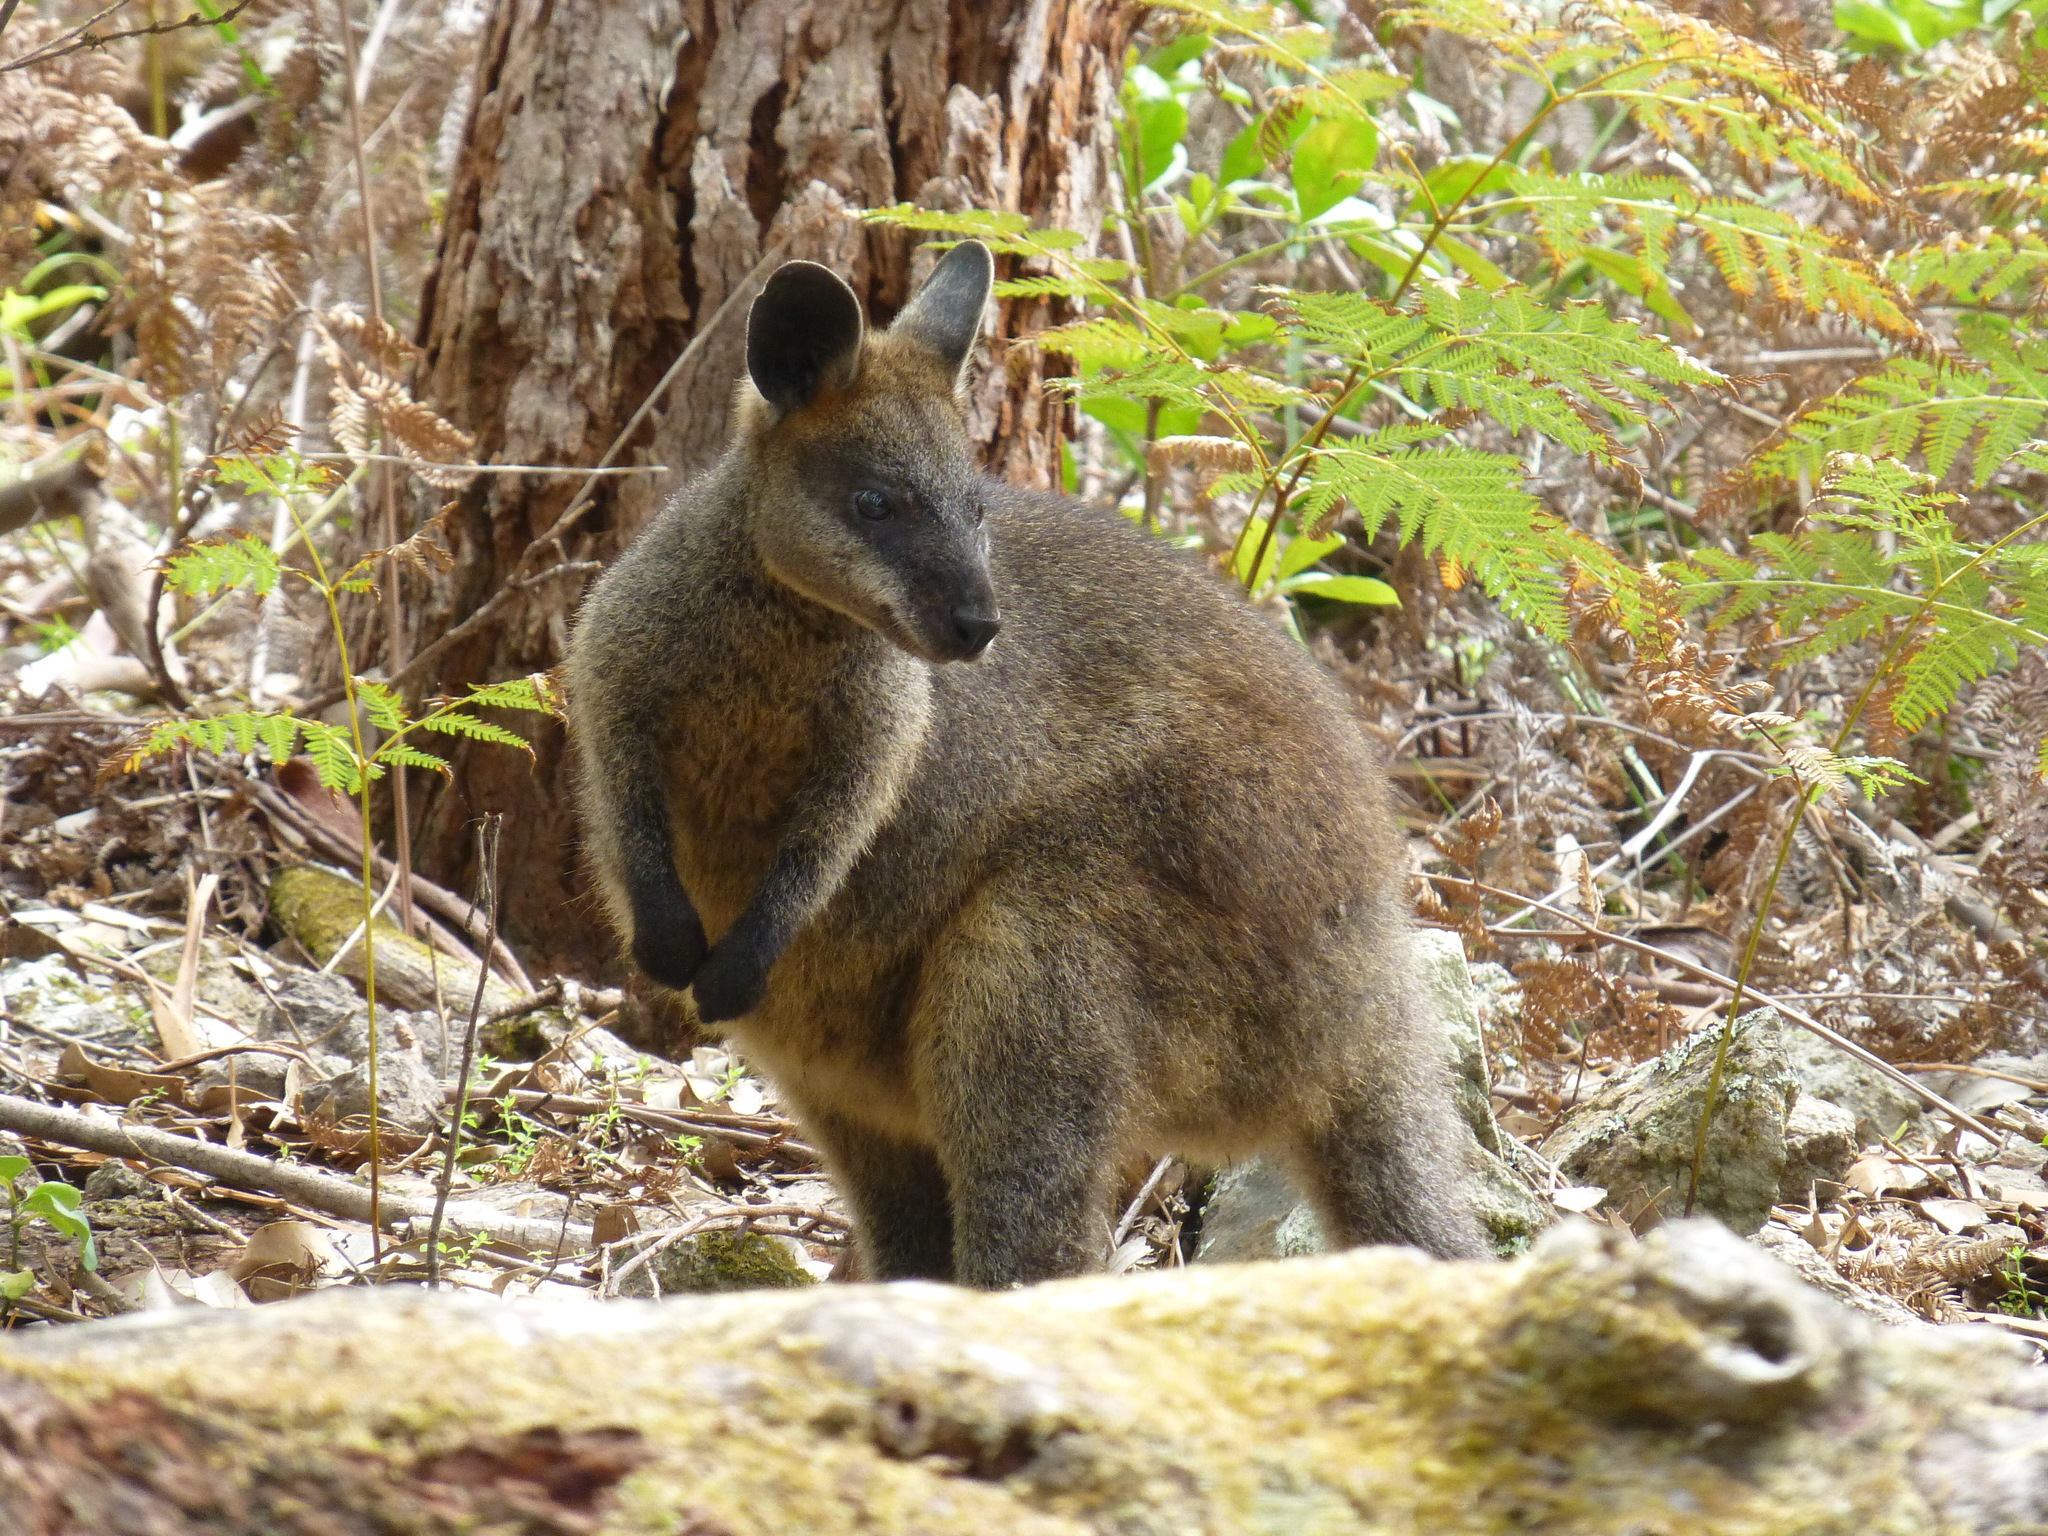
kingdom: Animalia
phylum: Chordata
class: Mammalia
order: Diprotodontia
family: Macropodidae
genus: Wallabia
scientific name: Wallabia bicolor
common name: Swamp wallaby
